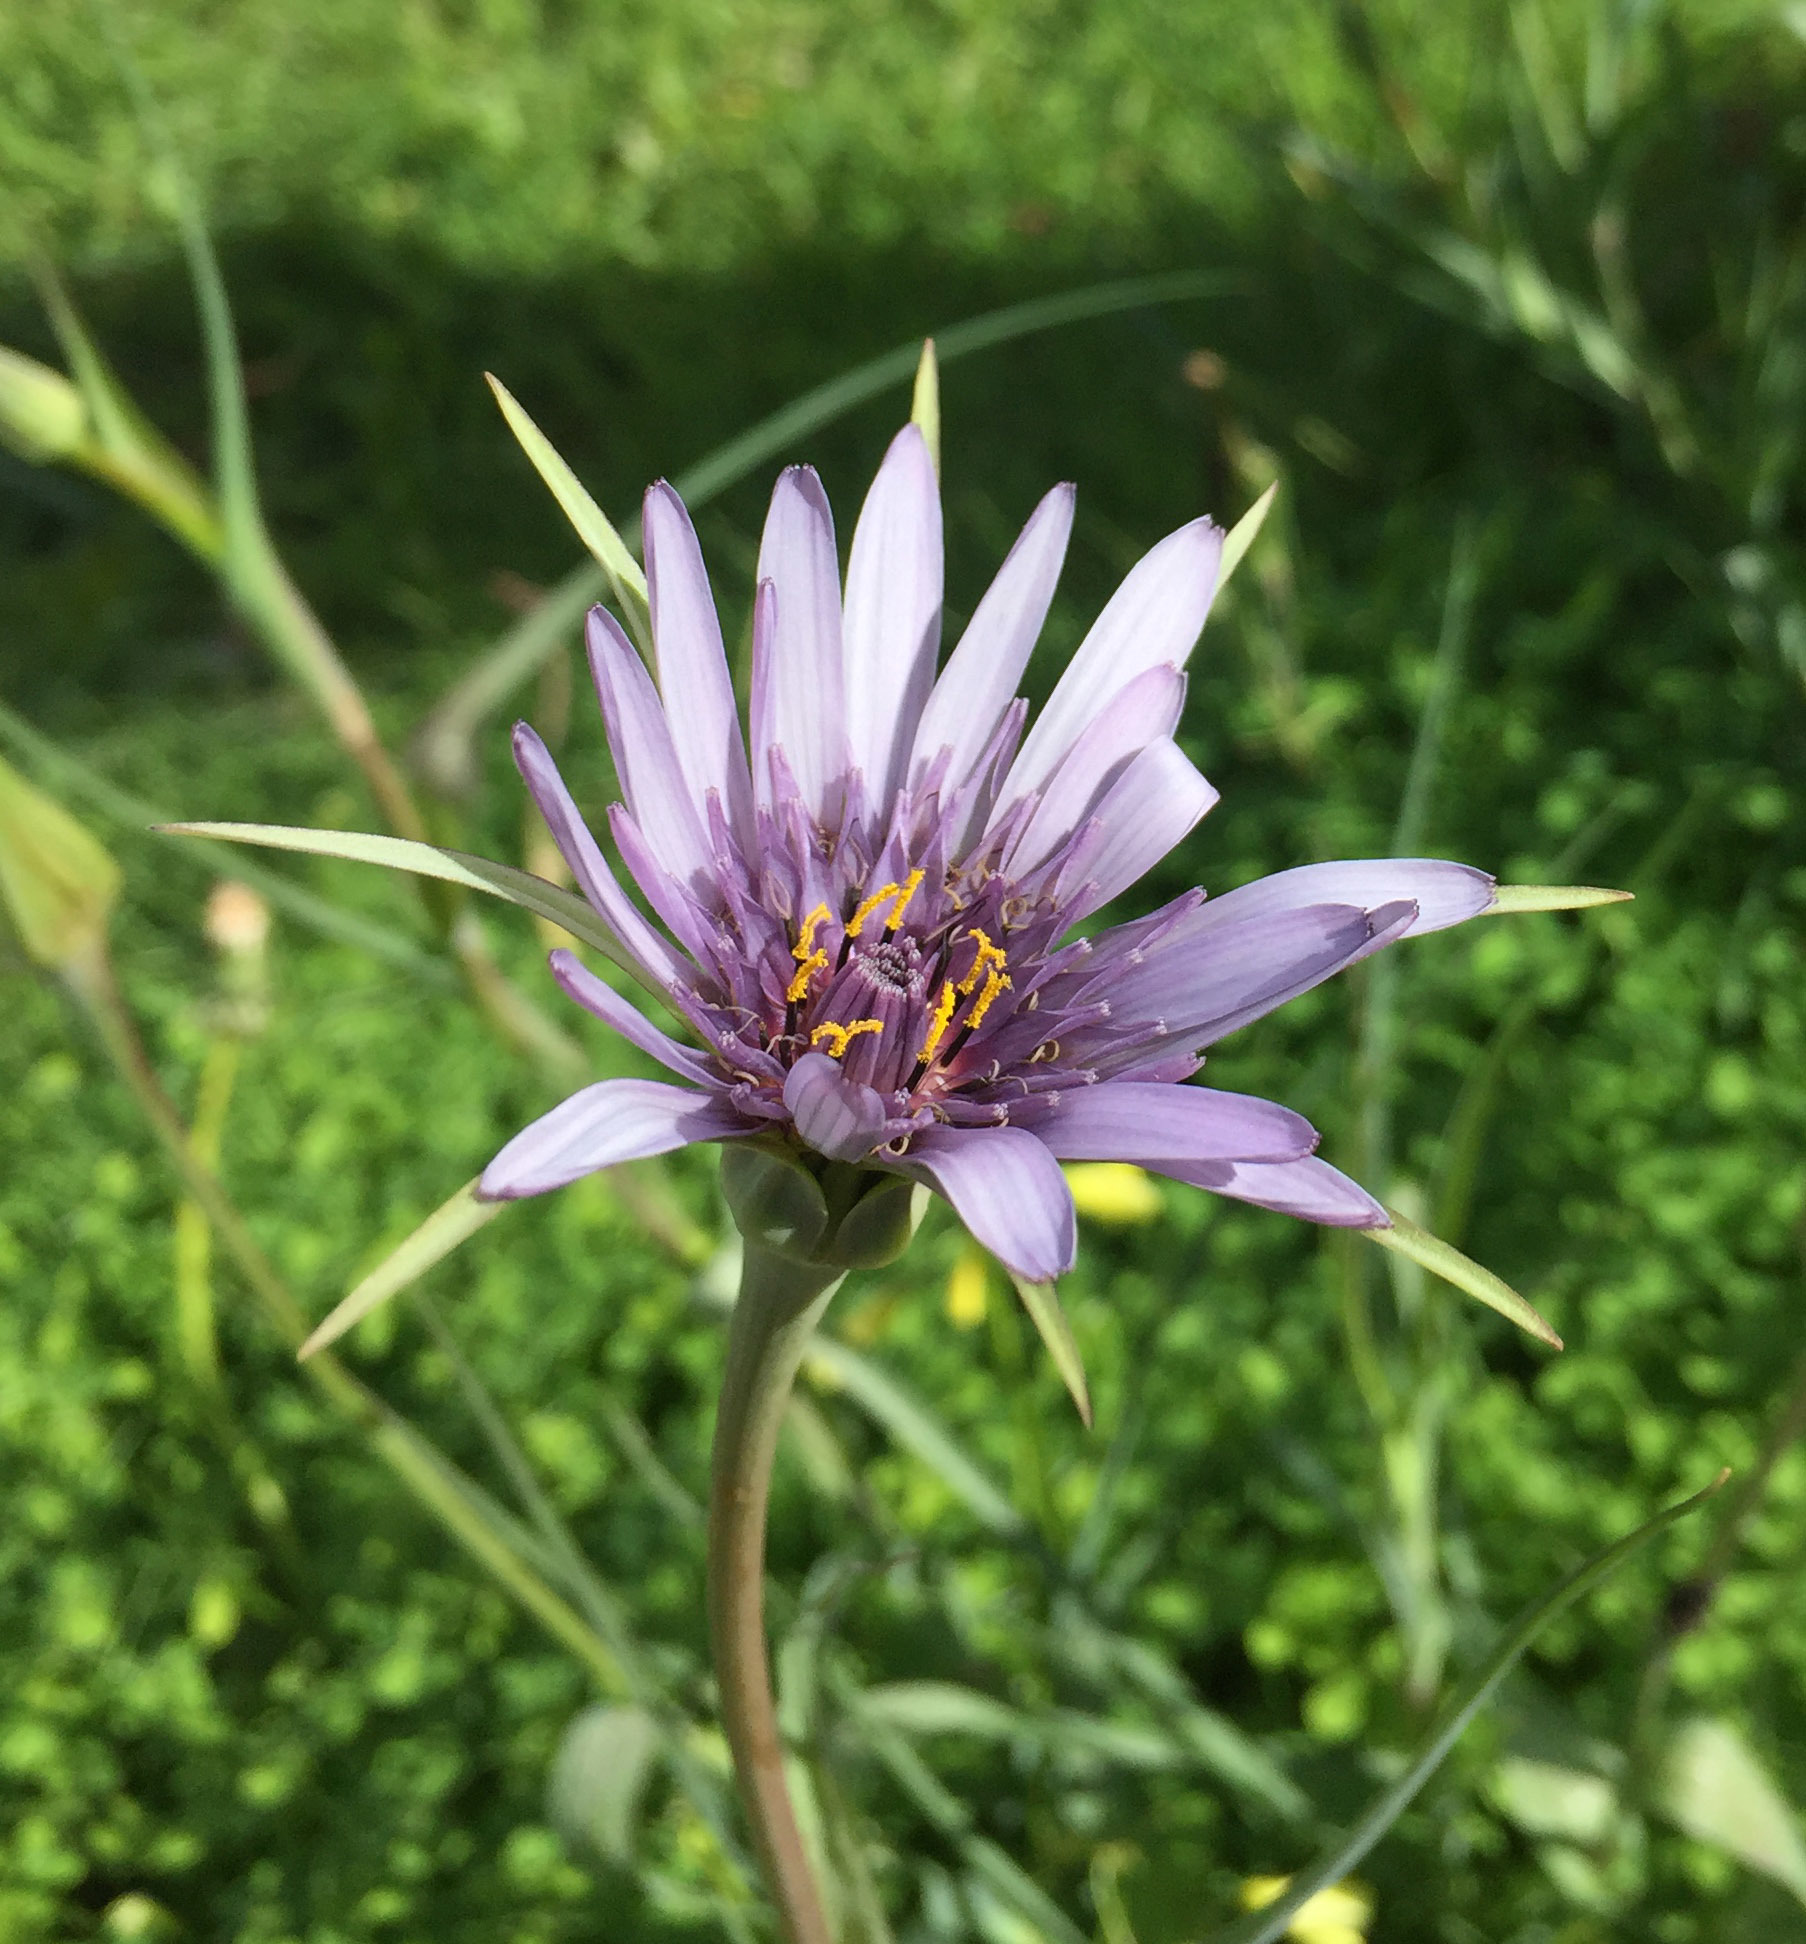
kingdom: Plantae
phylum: Tracheophyta
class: Magnoliopsida
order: Asterales
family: Asteraceae
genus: Tragopogon
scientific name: Tragopogon porrifolius
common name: Salsify
